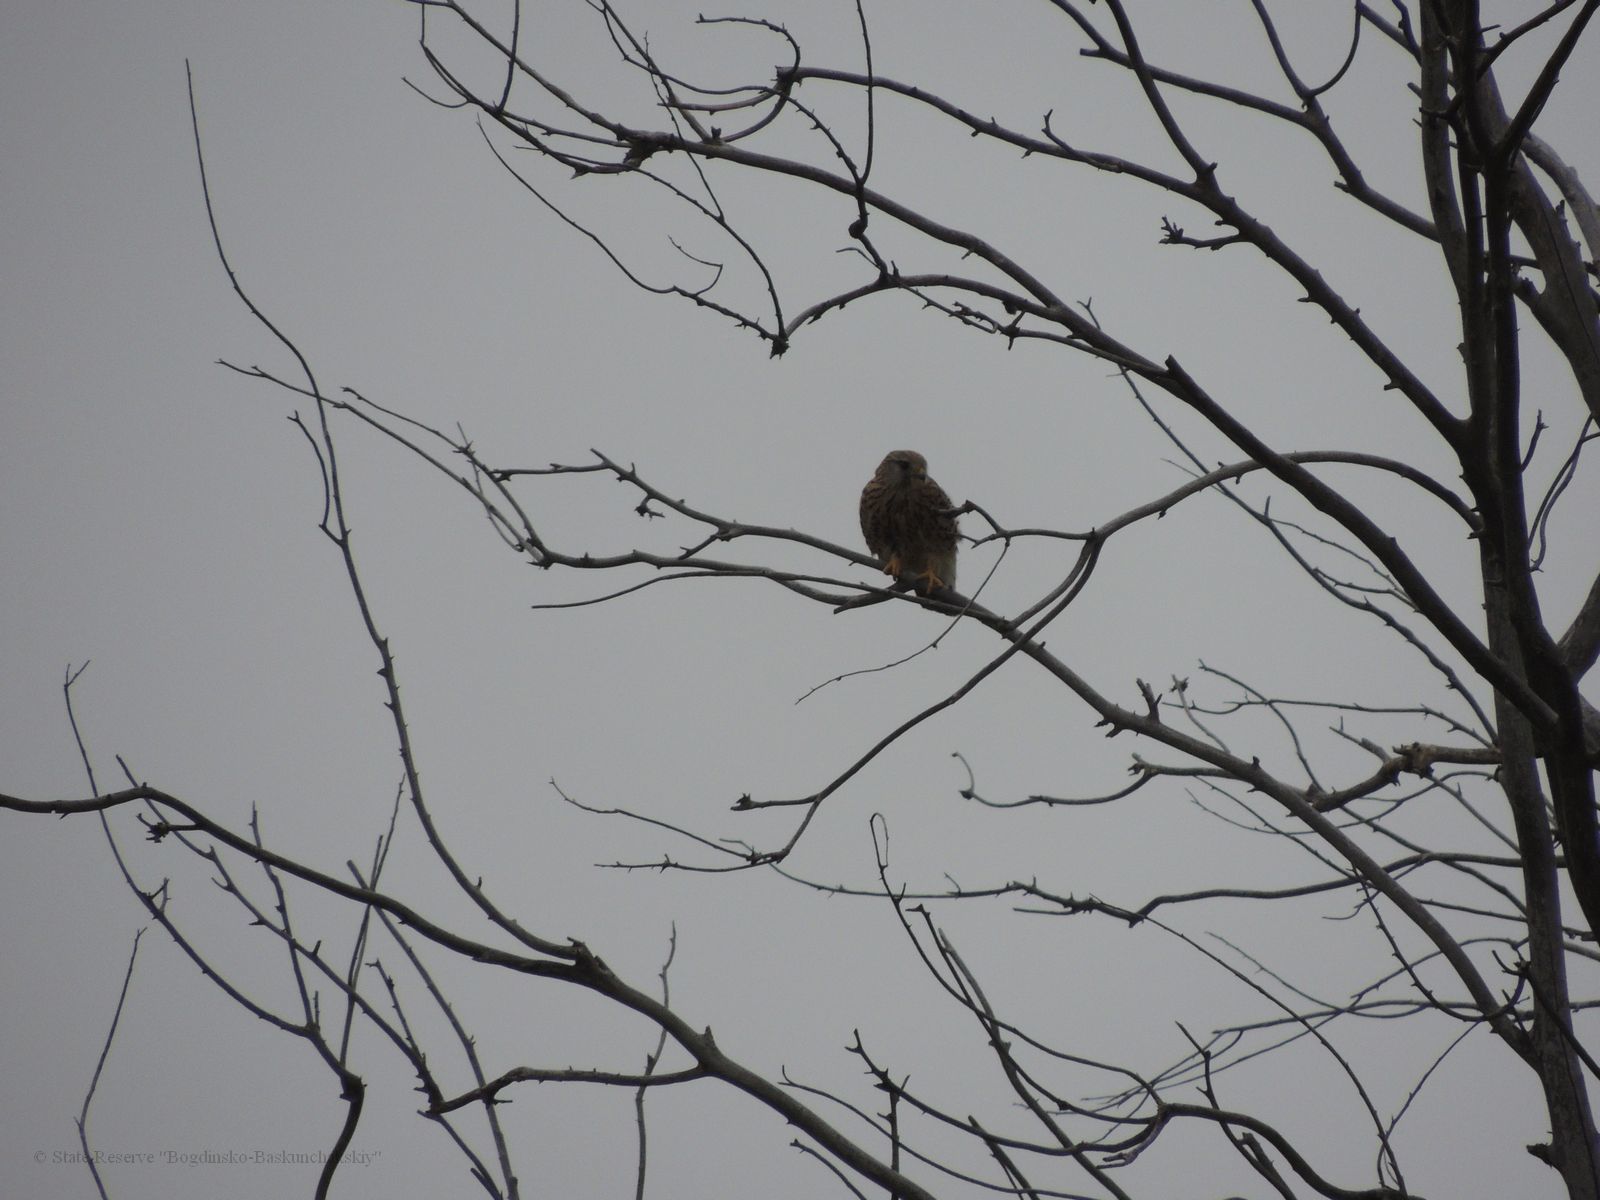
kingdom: Animalia
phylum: Chordata
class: Aves
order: Falconiformes
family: Falconidae
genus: Falco
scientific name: Falco tinnunculus
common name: Common kestrel
